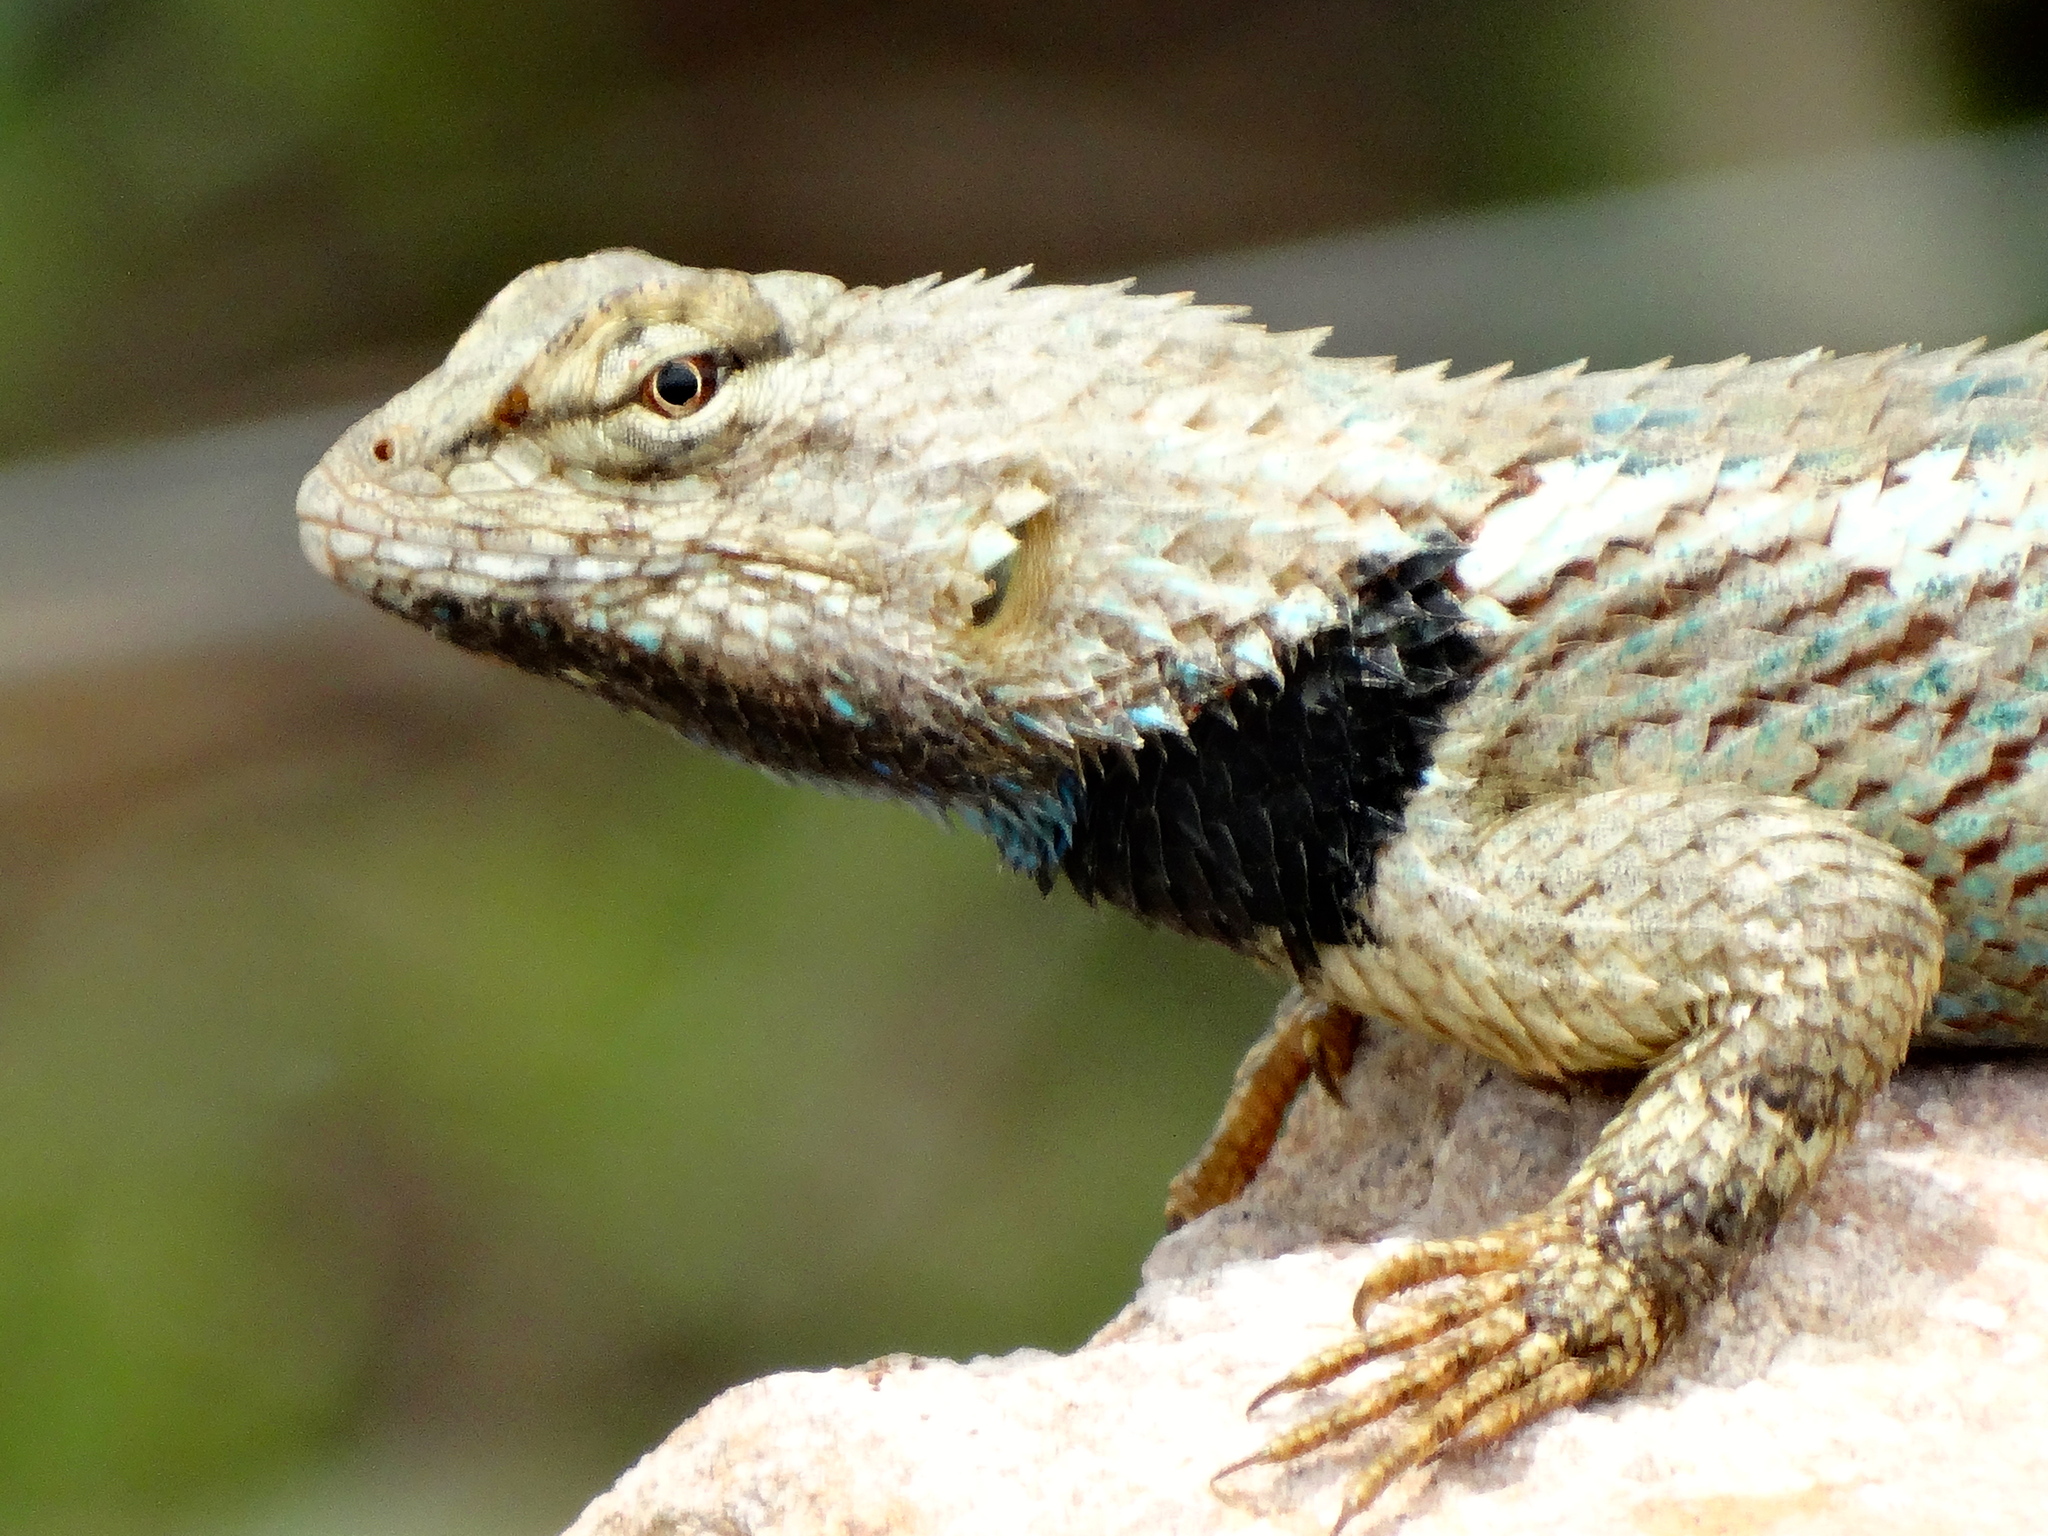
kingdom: Animalia
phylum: Chordata
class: Squamata
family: Phrynosomatidae
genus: Sceloporus
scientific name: Sceloporus clarkii
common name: Clark's spiny lizard
